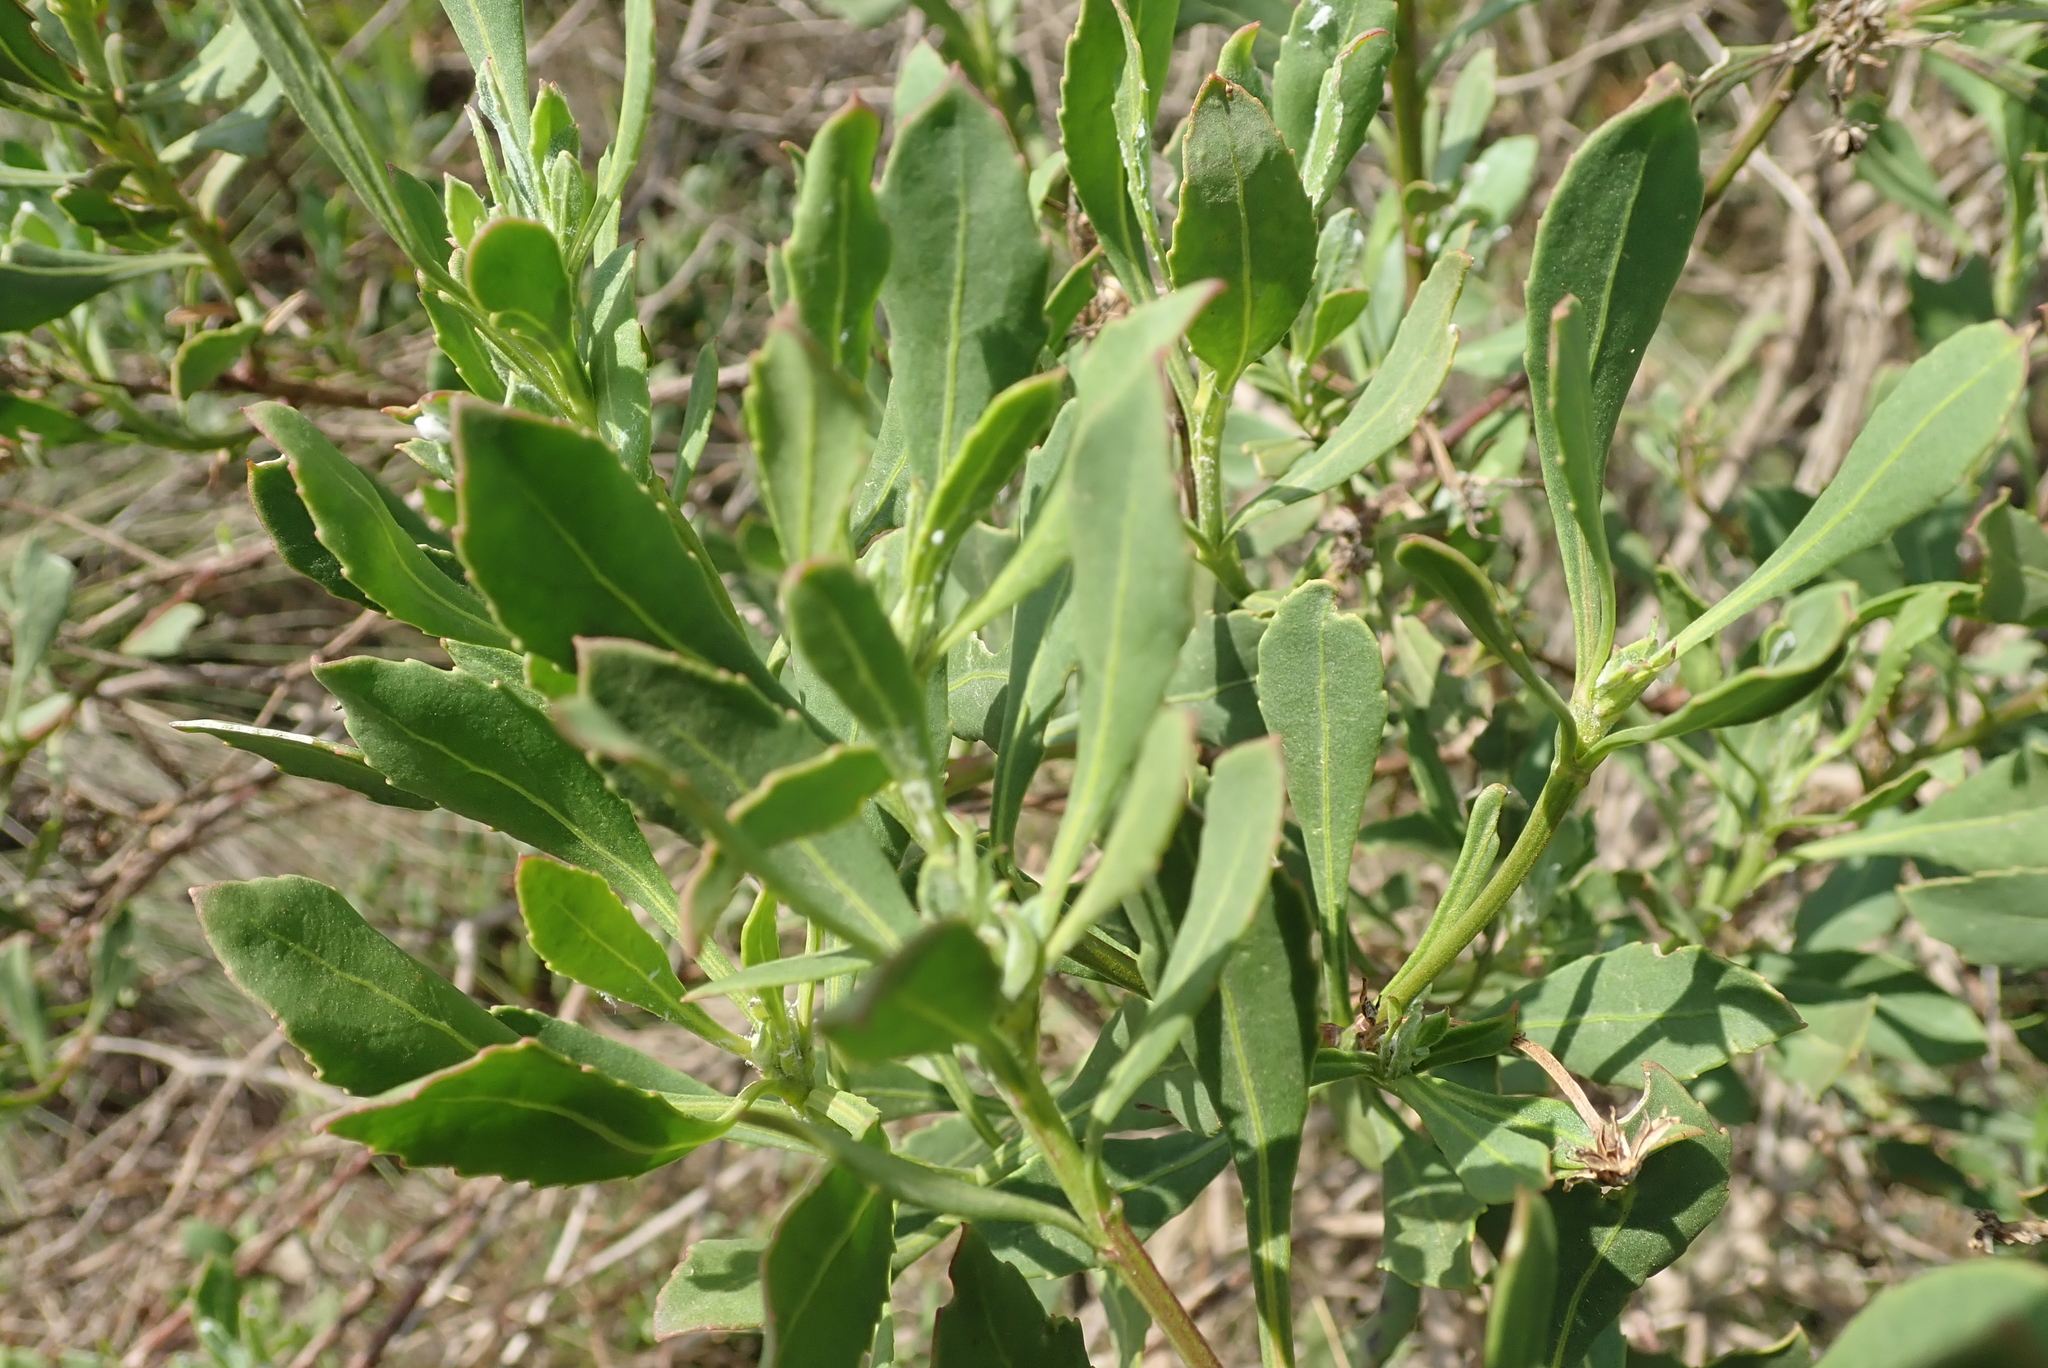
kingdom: Plantae
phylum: Tracheophyta
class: Magnoliopsida
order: Asterales
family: Asteraceae
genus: Osteospermum
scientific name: Osteospermum moniliferum
